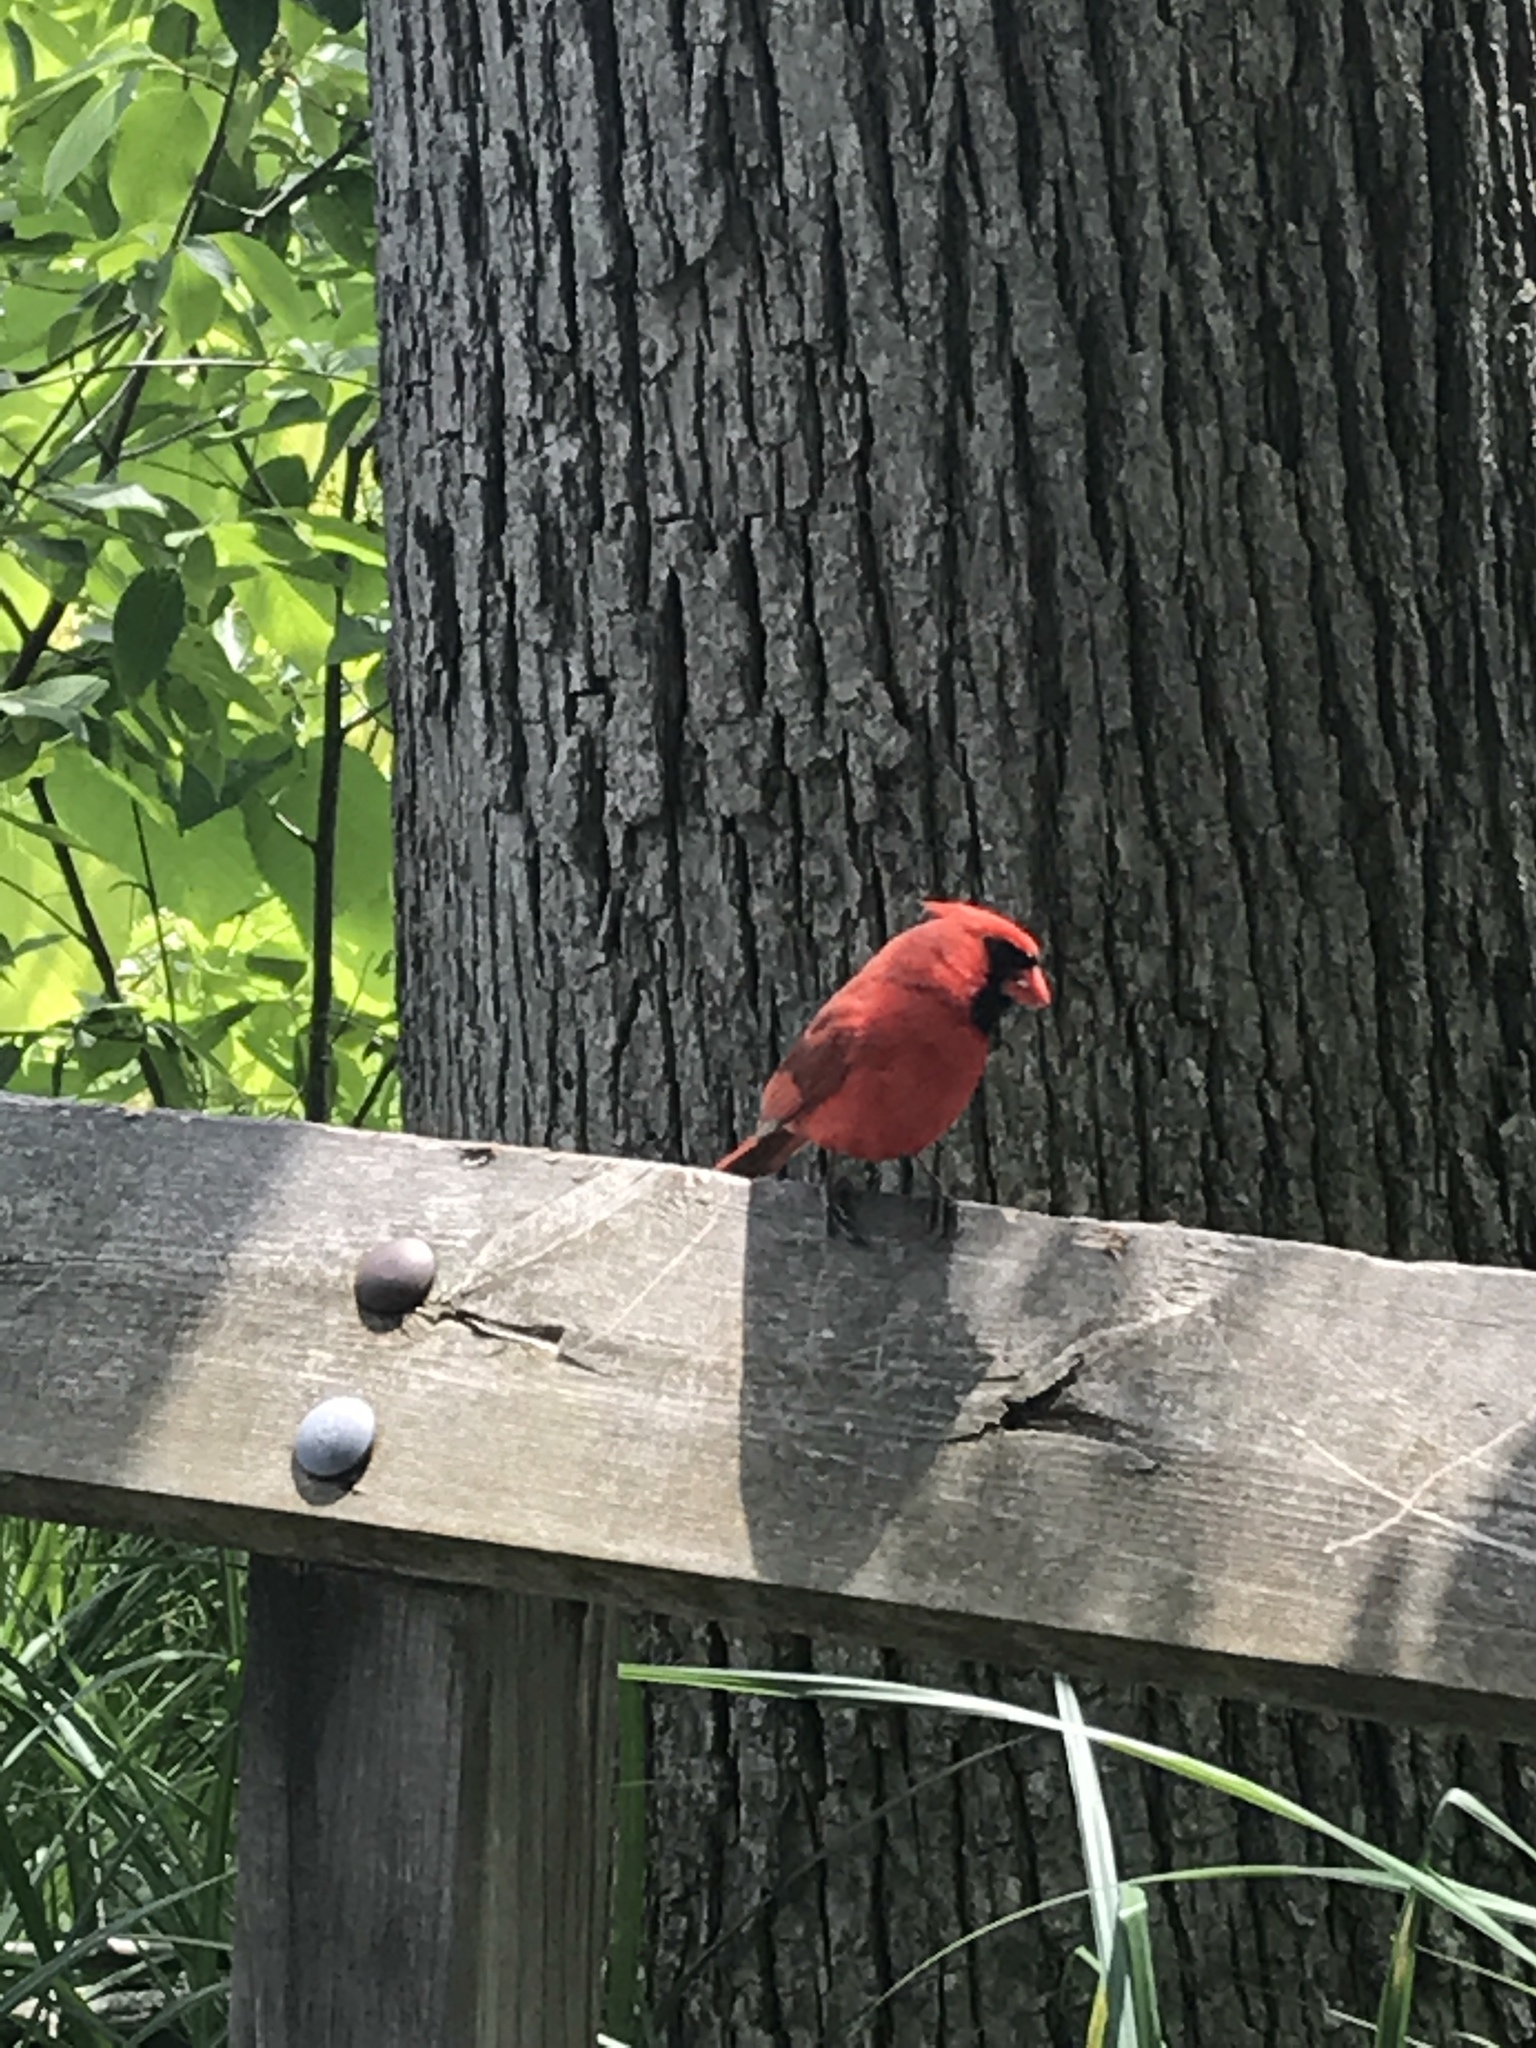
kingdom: Animalia
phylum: Chordata
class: Aves
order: Passeriformes
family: Cardinalidae
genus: Cardinalis
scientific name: Cardinalis cardinalis
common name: Northern cardinal
